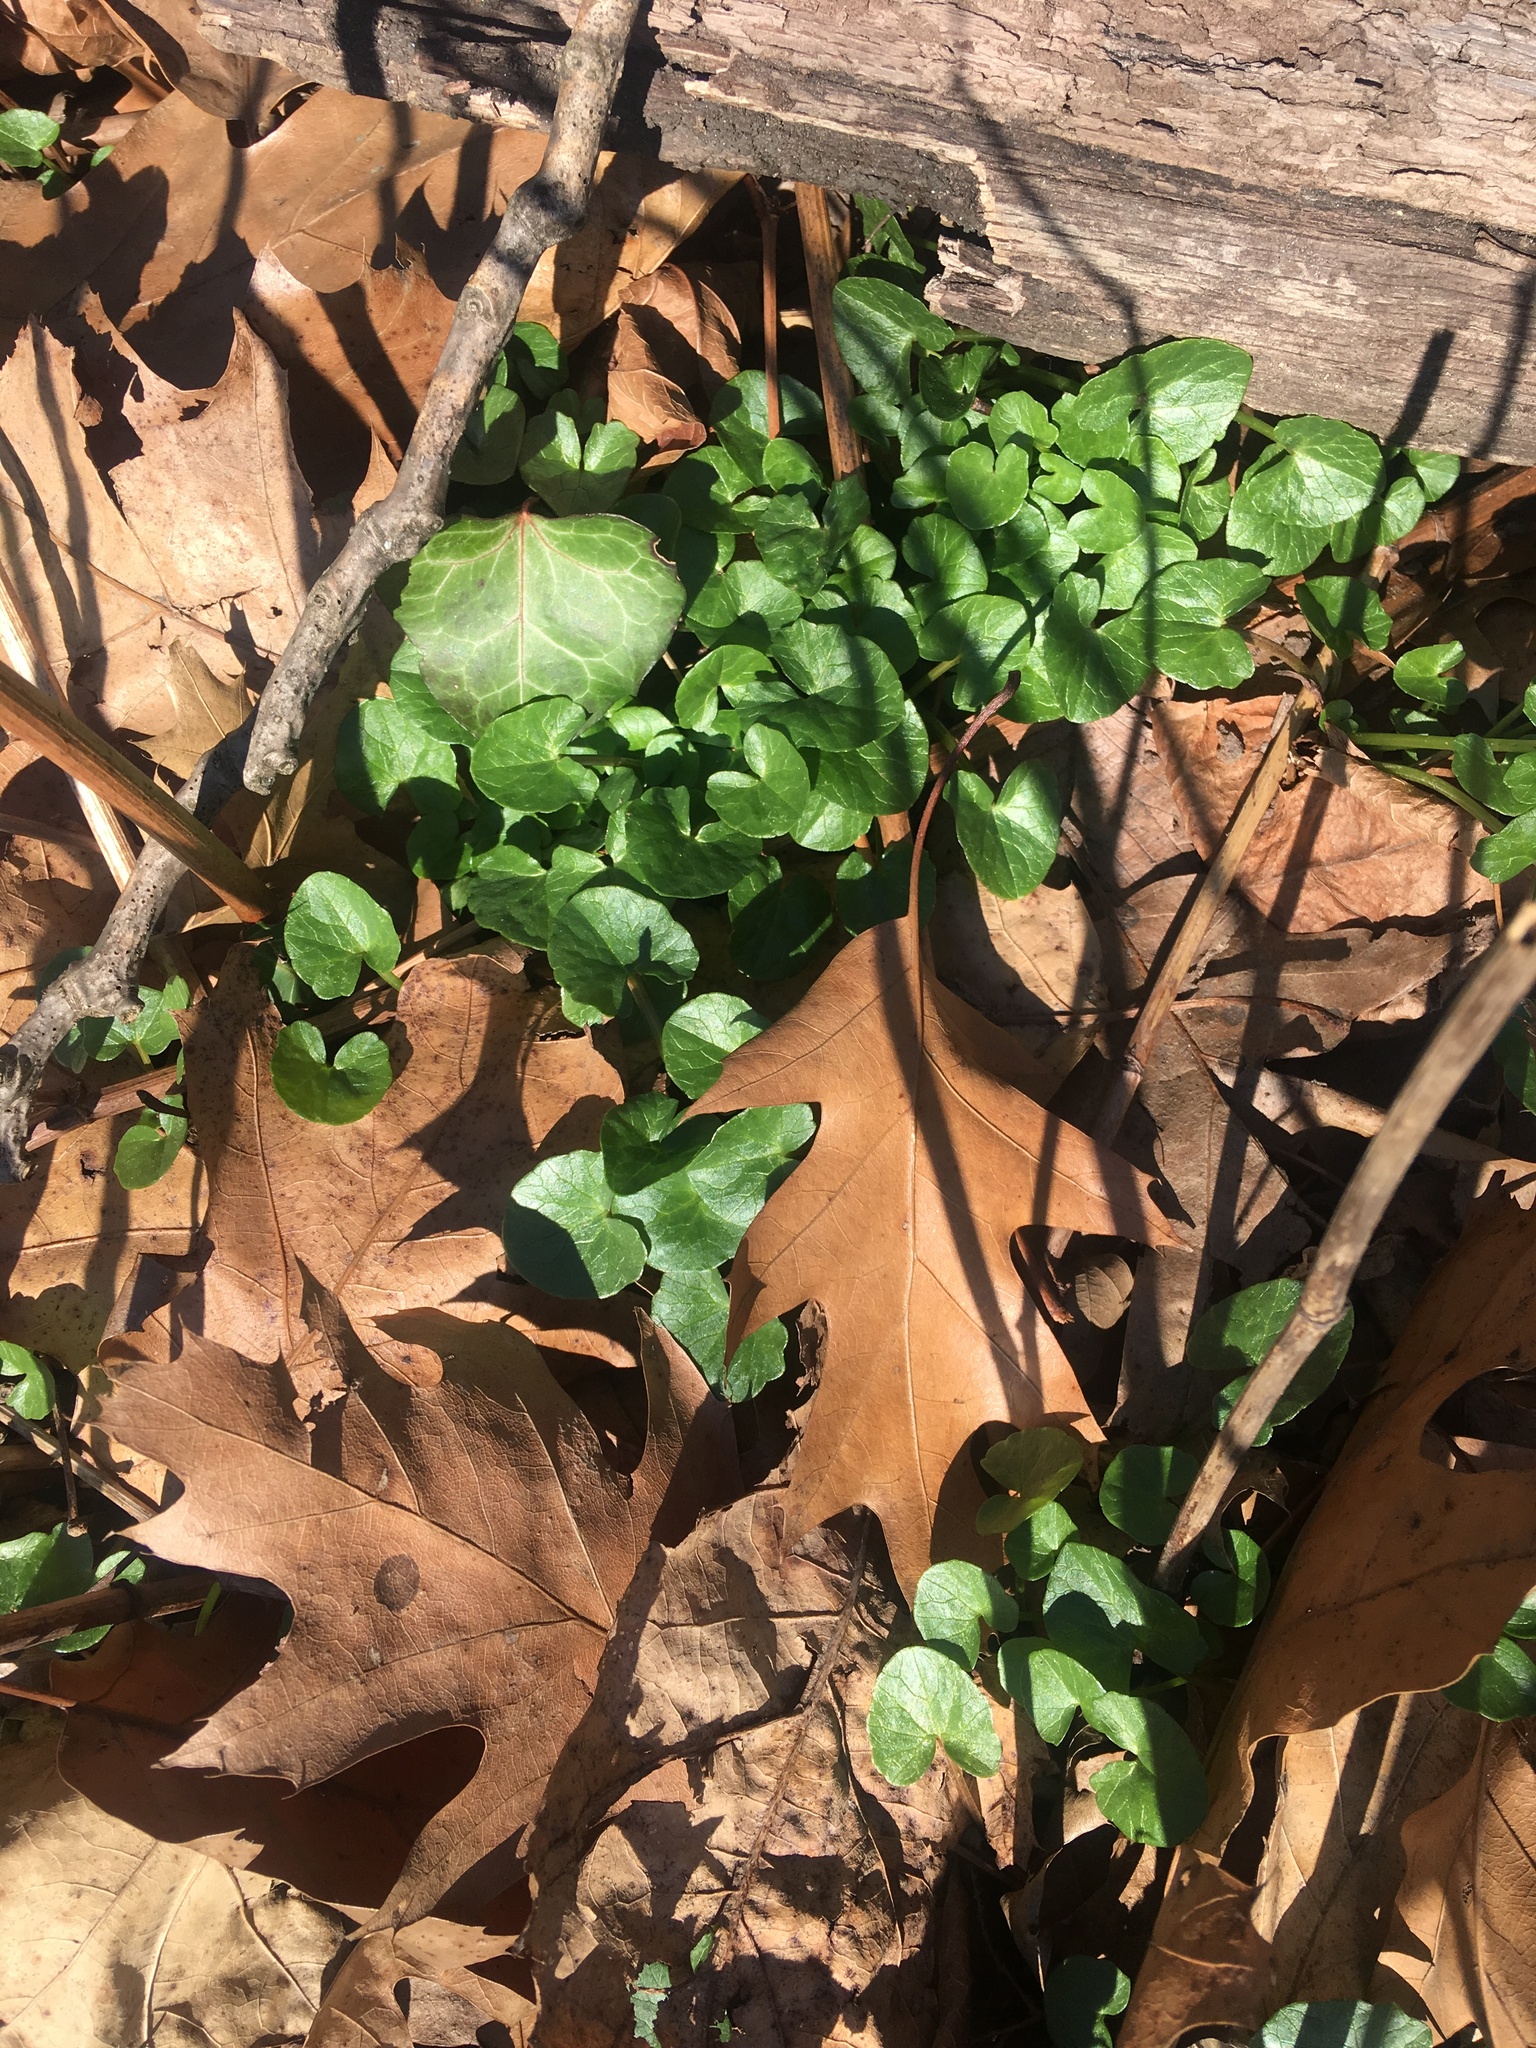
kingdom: Plantae
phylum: Tracheophyta
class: Magnoliopsida
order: Ranunculales
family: Ranunculaceae
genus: Ficaria
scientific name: Ficaria verna
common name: Lesser celandine
